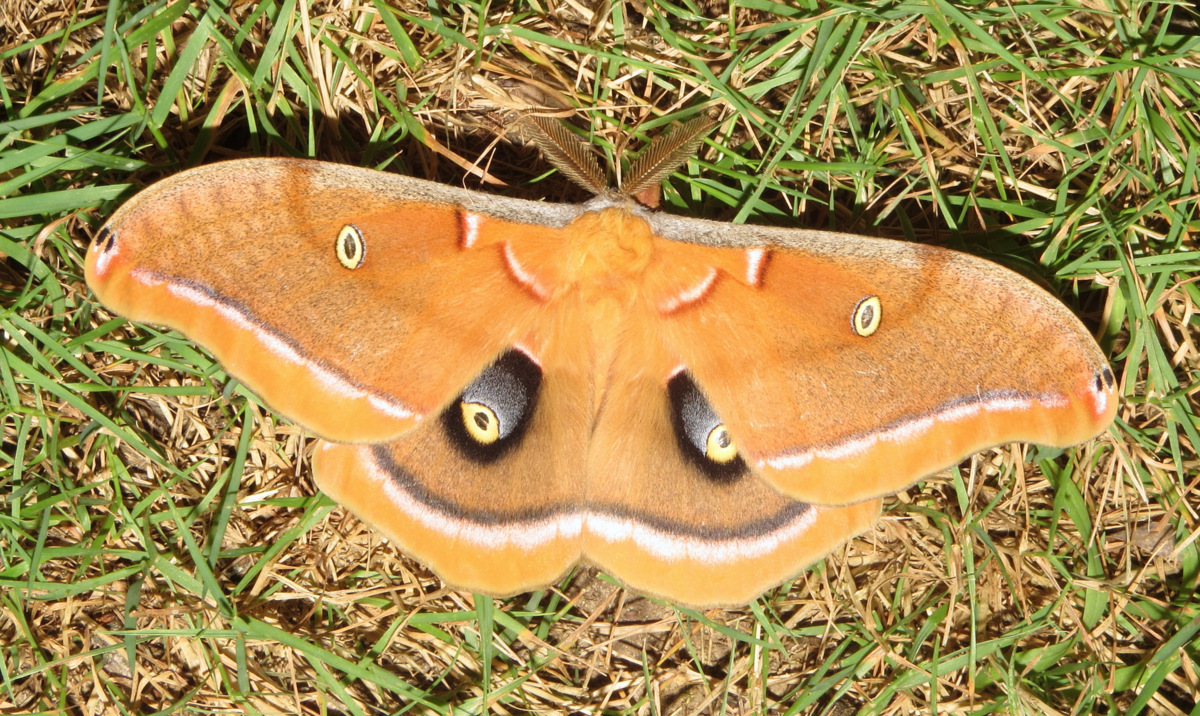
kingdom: Animalia
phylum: Arthropoda
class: Insecta
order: Lepidoptera
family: Saturniidae
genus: Antheraea
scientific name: Antheraea polyphemus
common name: Polyphemus moth
